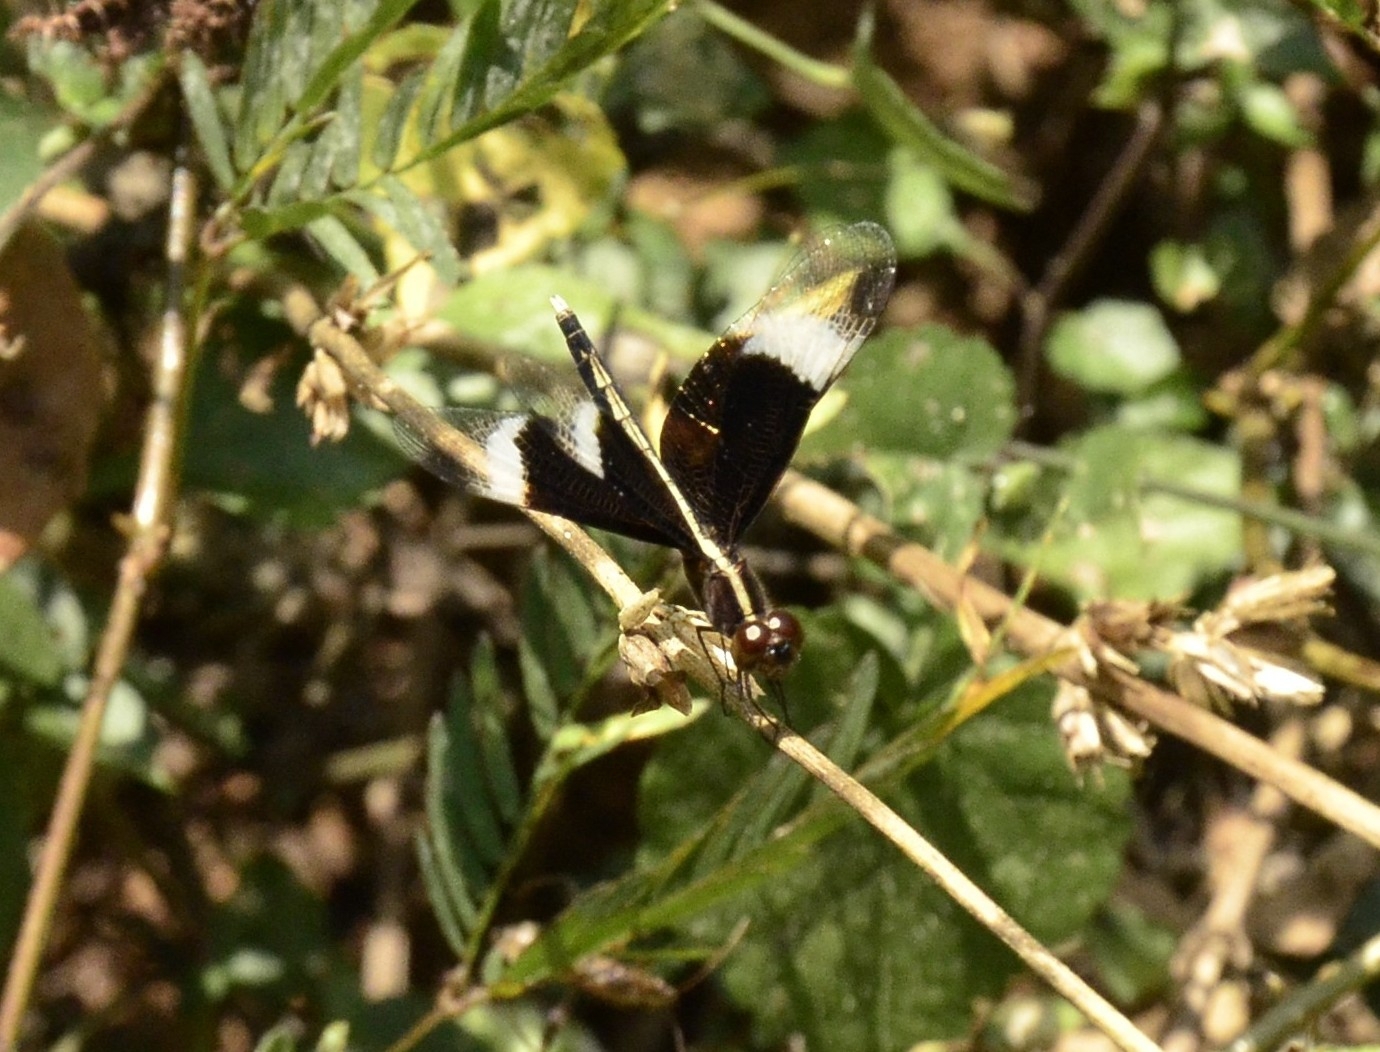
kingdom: Animalia
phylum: Arthropoda
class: Insecta
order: Odonata
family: Libellulidae
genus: Neurothemis
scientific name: Neurothemis tullia
